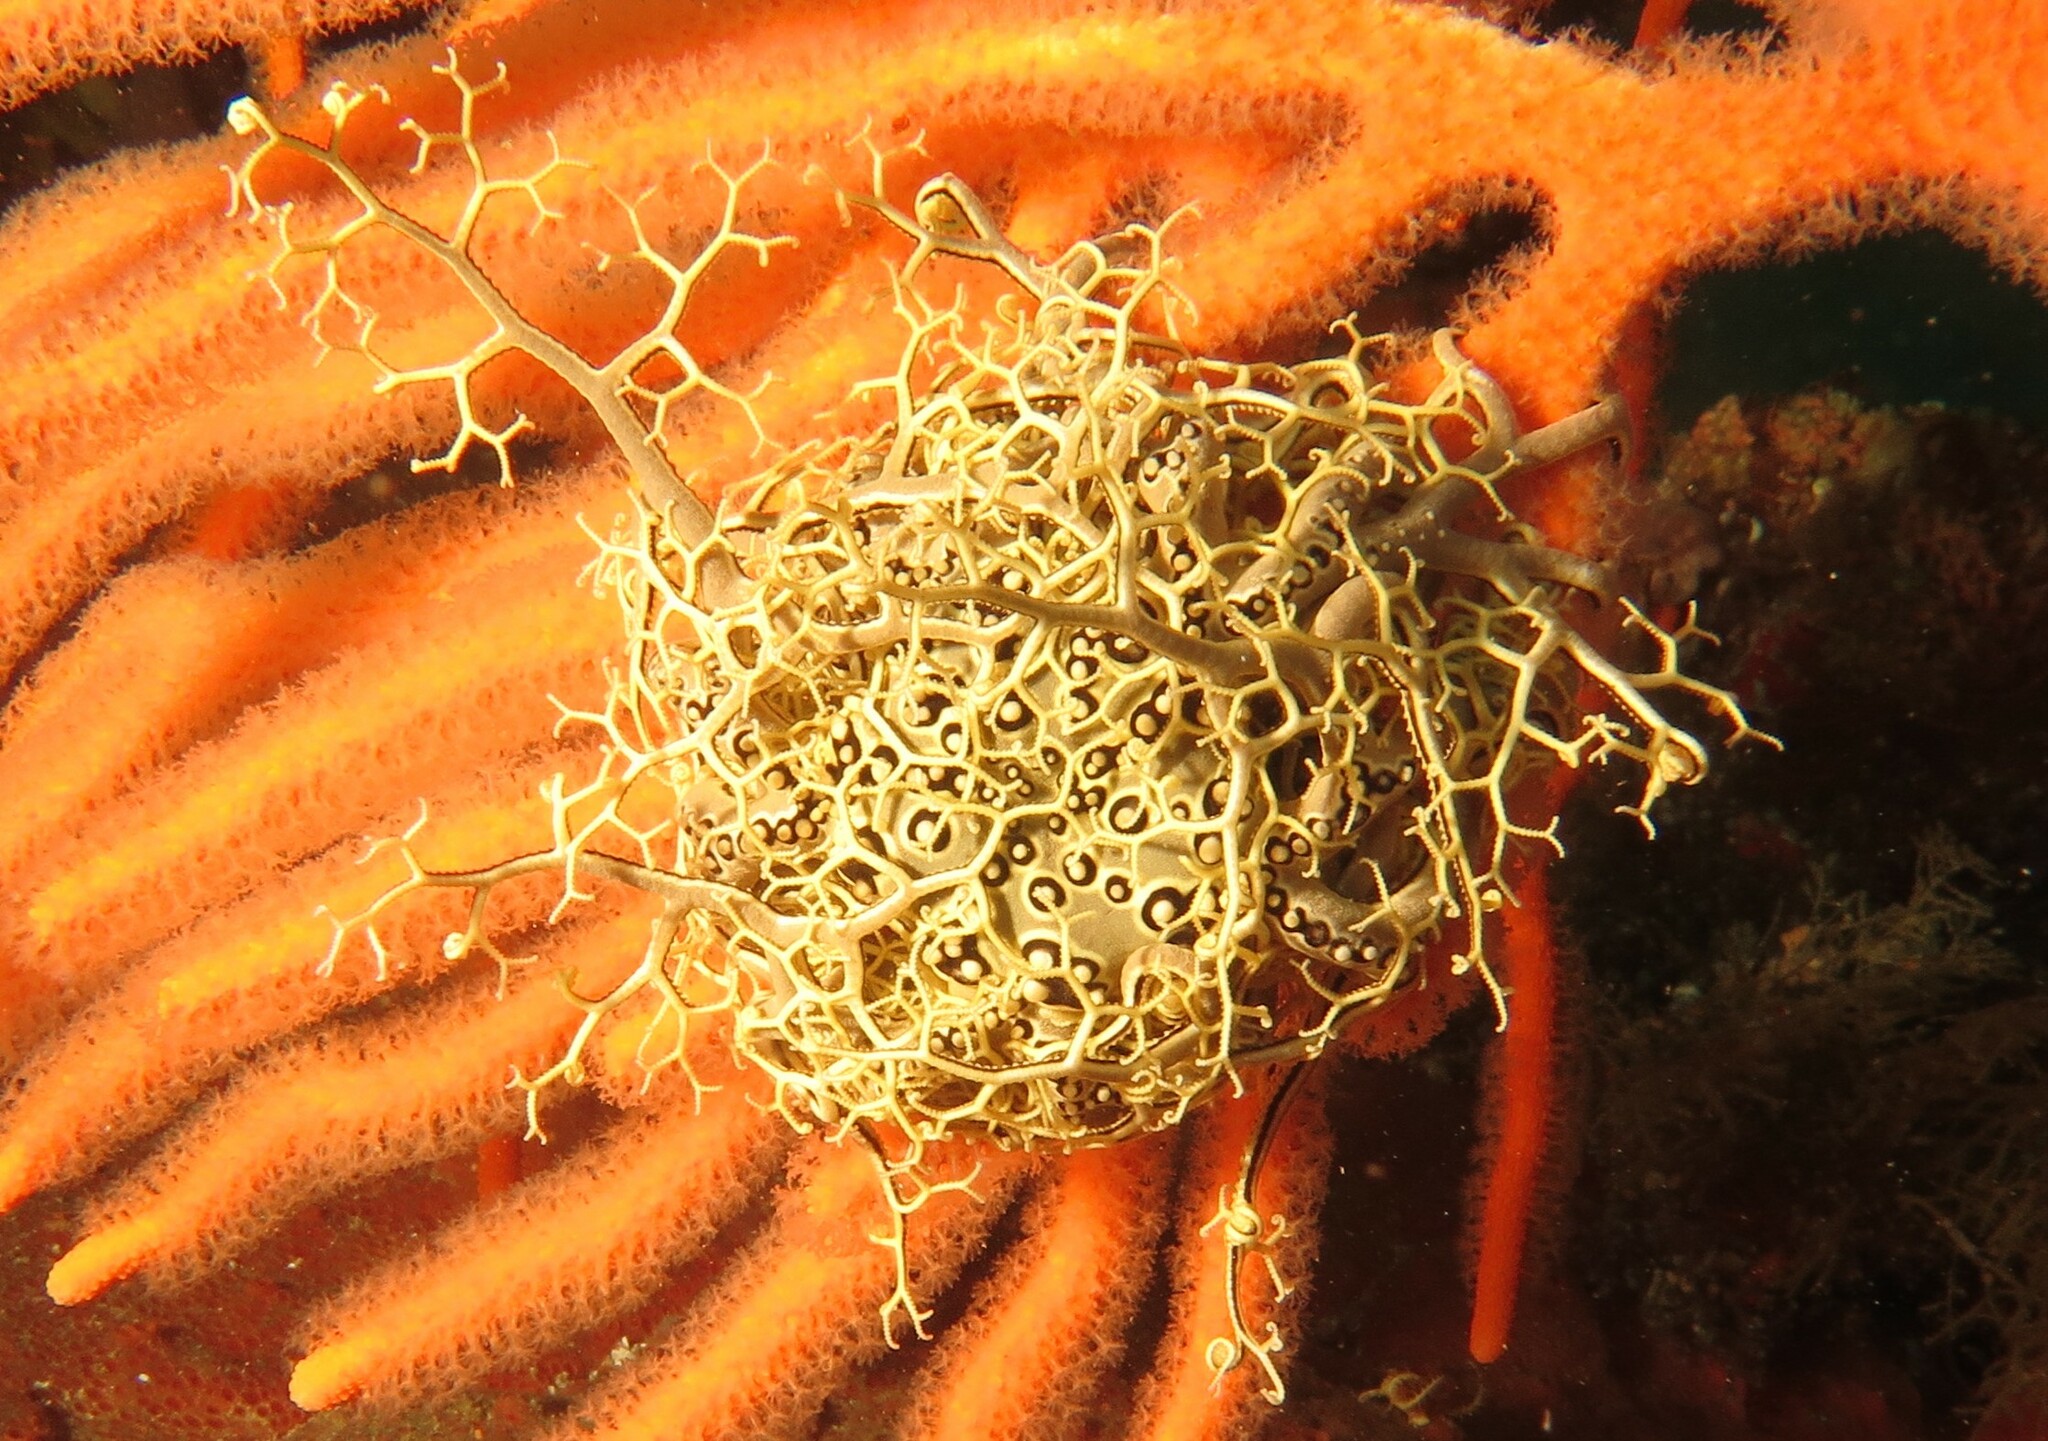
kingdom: Animalia
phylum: Echinodermata
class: Ophiuroidea
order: Euryalida
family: Gorgonocephalidae
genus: Astrocladus
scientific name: Astrocladus euryale
